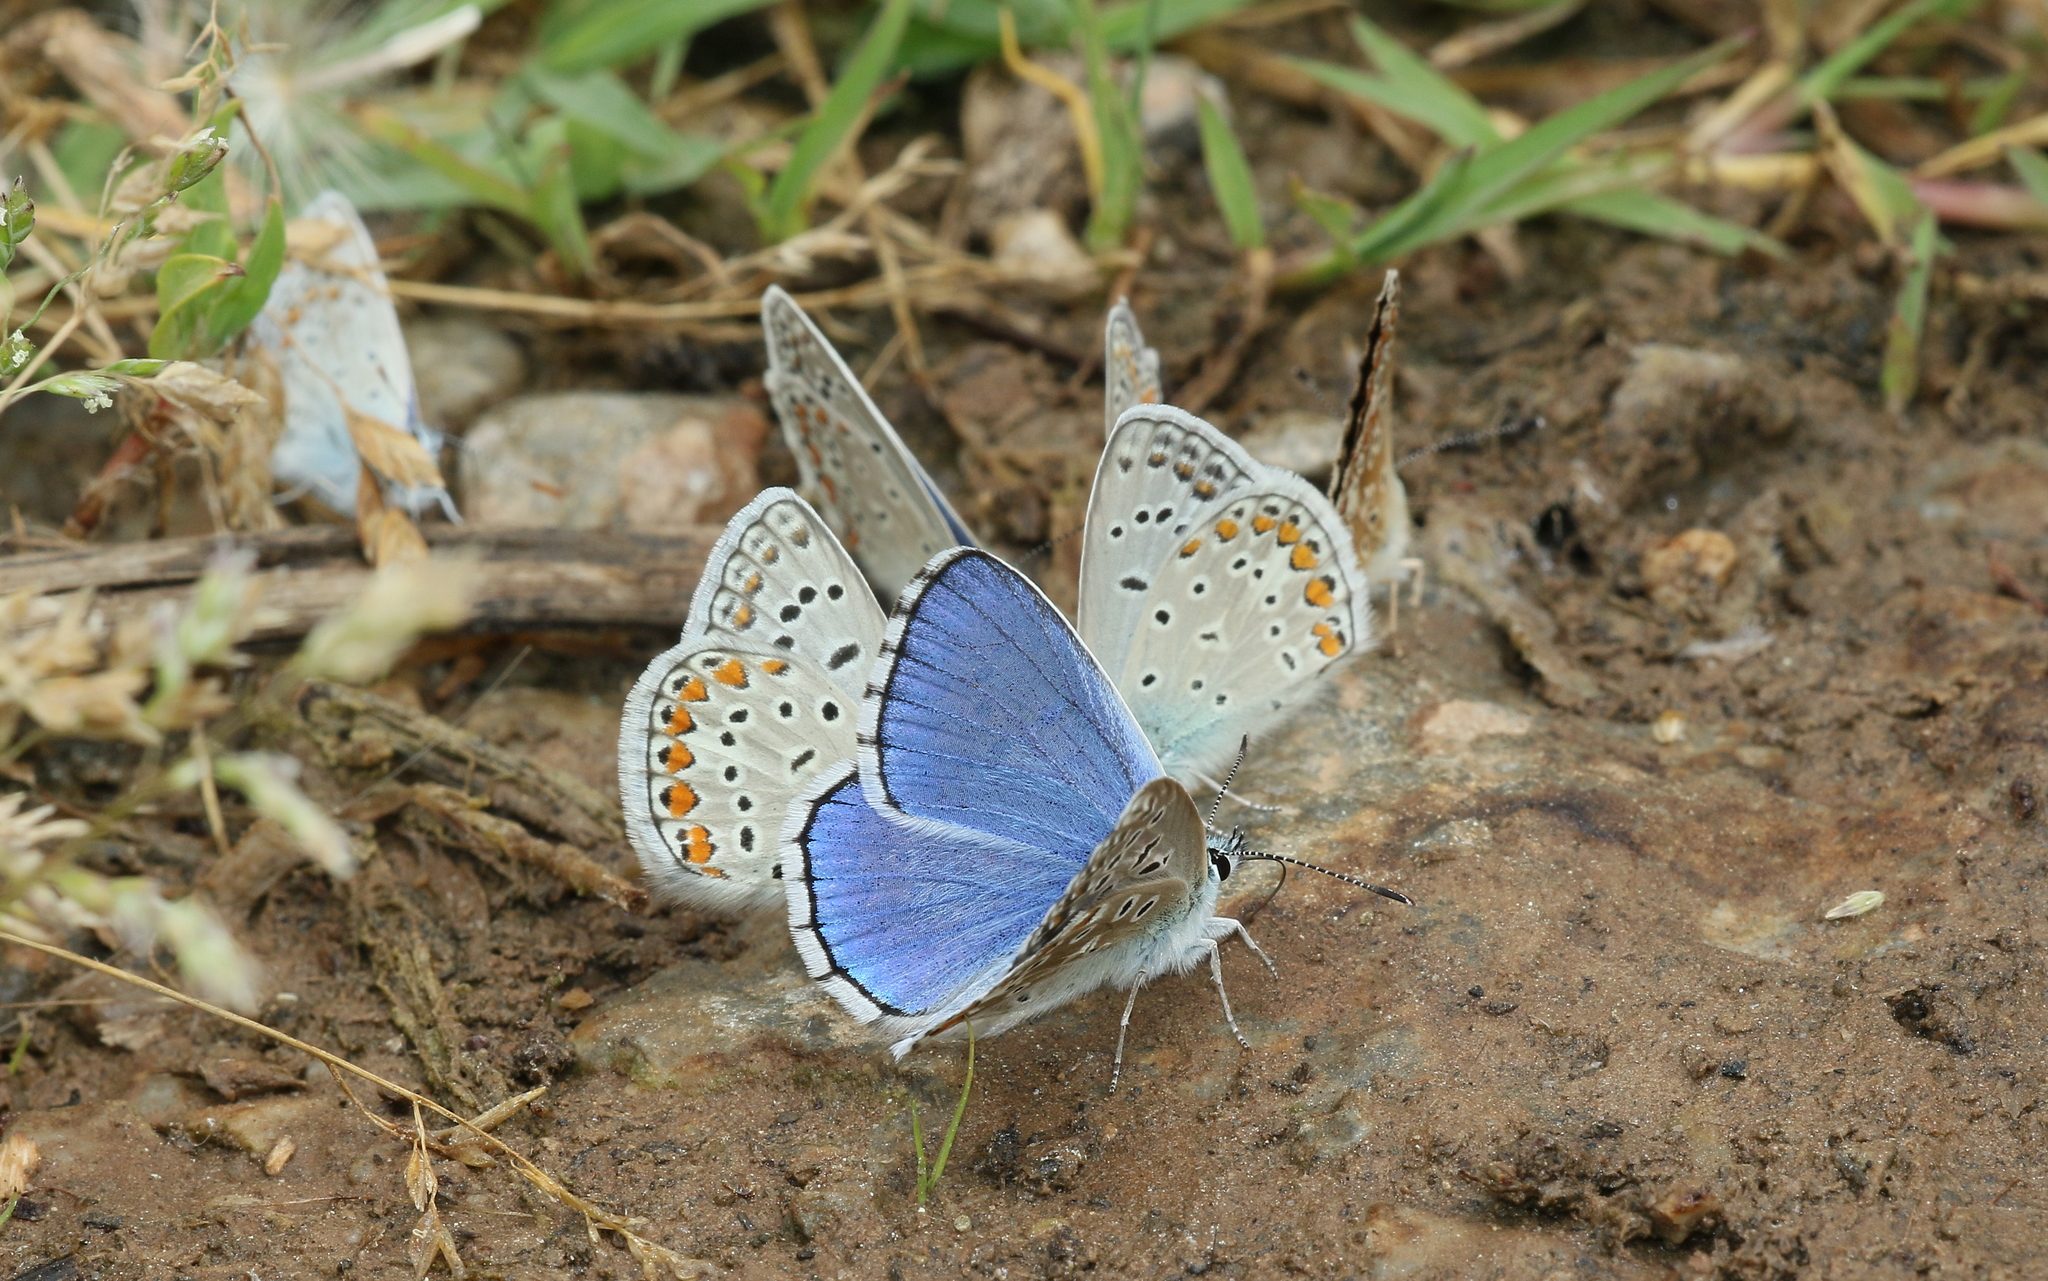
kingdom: Animalia
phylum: Arthropoda
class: Insecta
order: Lepidoptera
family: Lycaenidae
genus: Lysandra
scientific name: Lysandra bellargus
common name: Adonis blue
